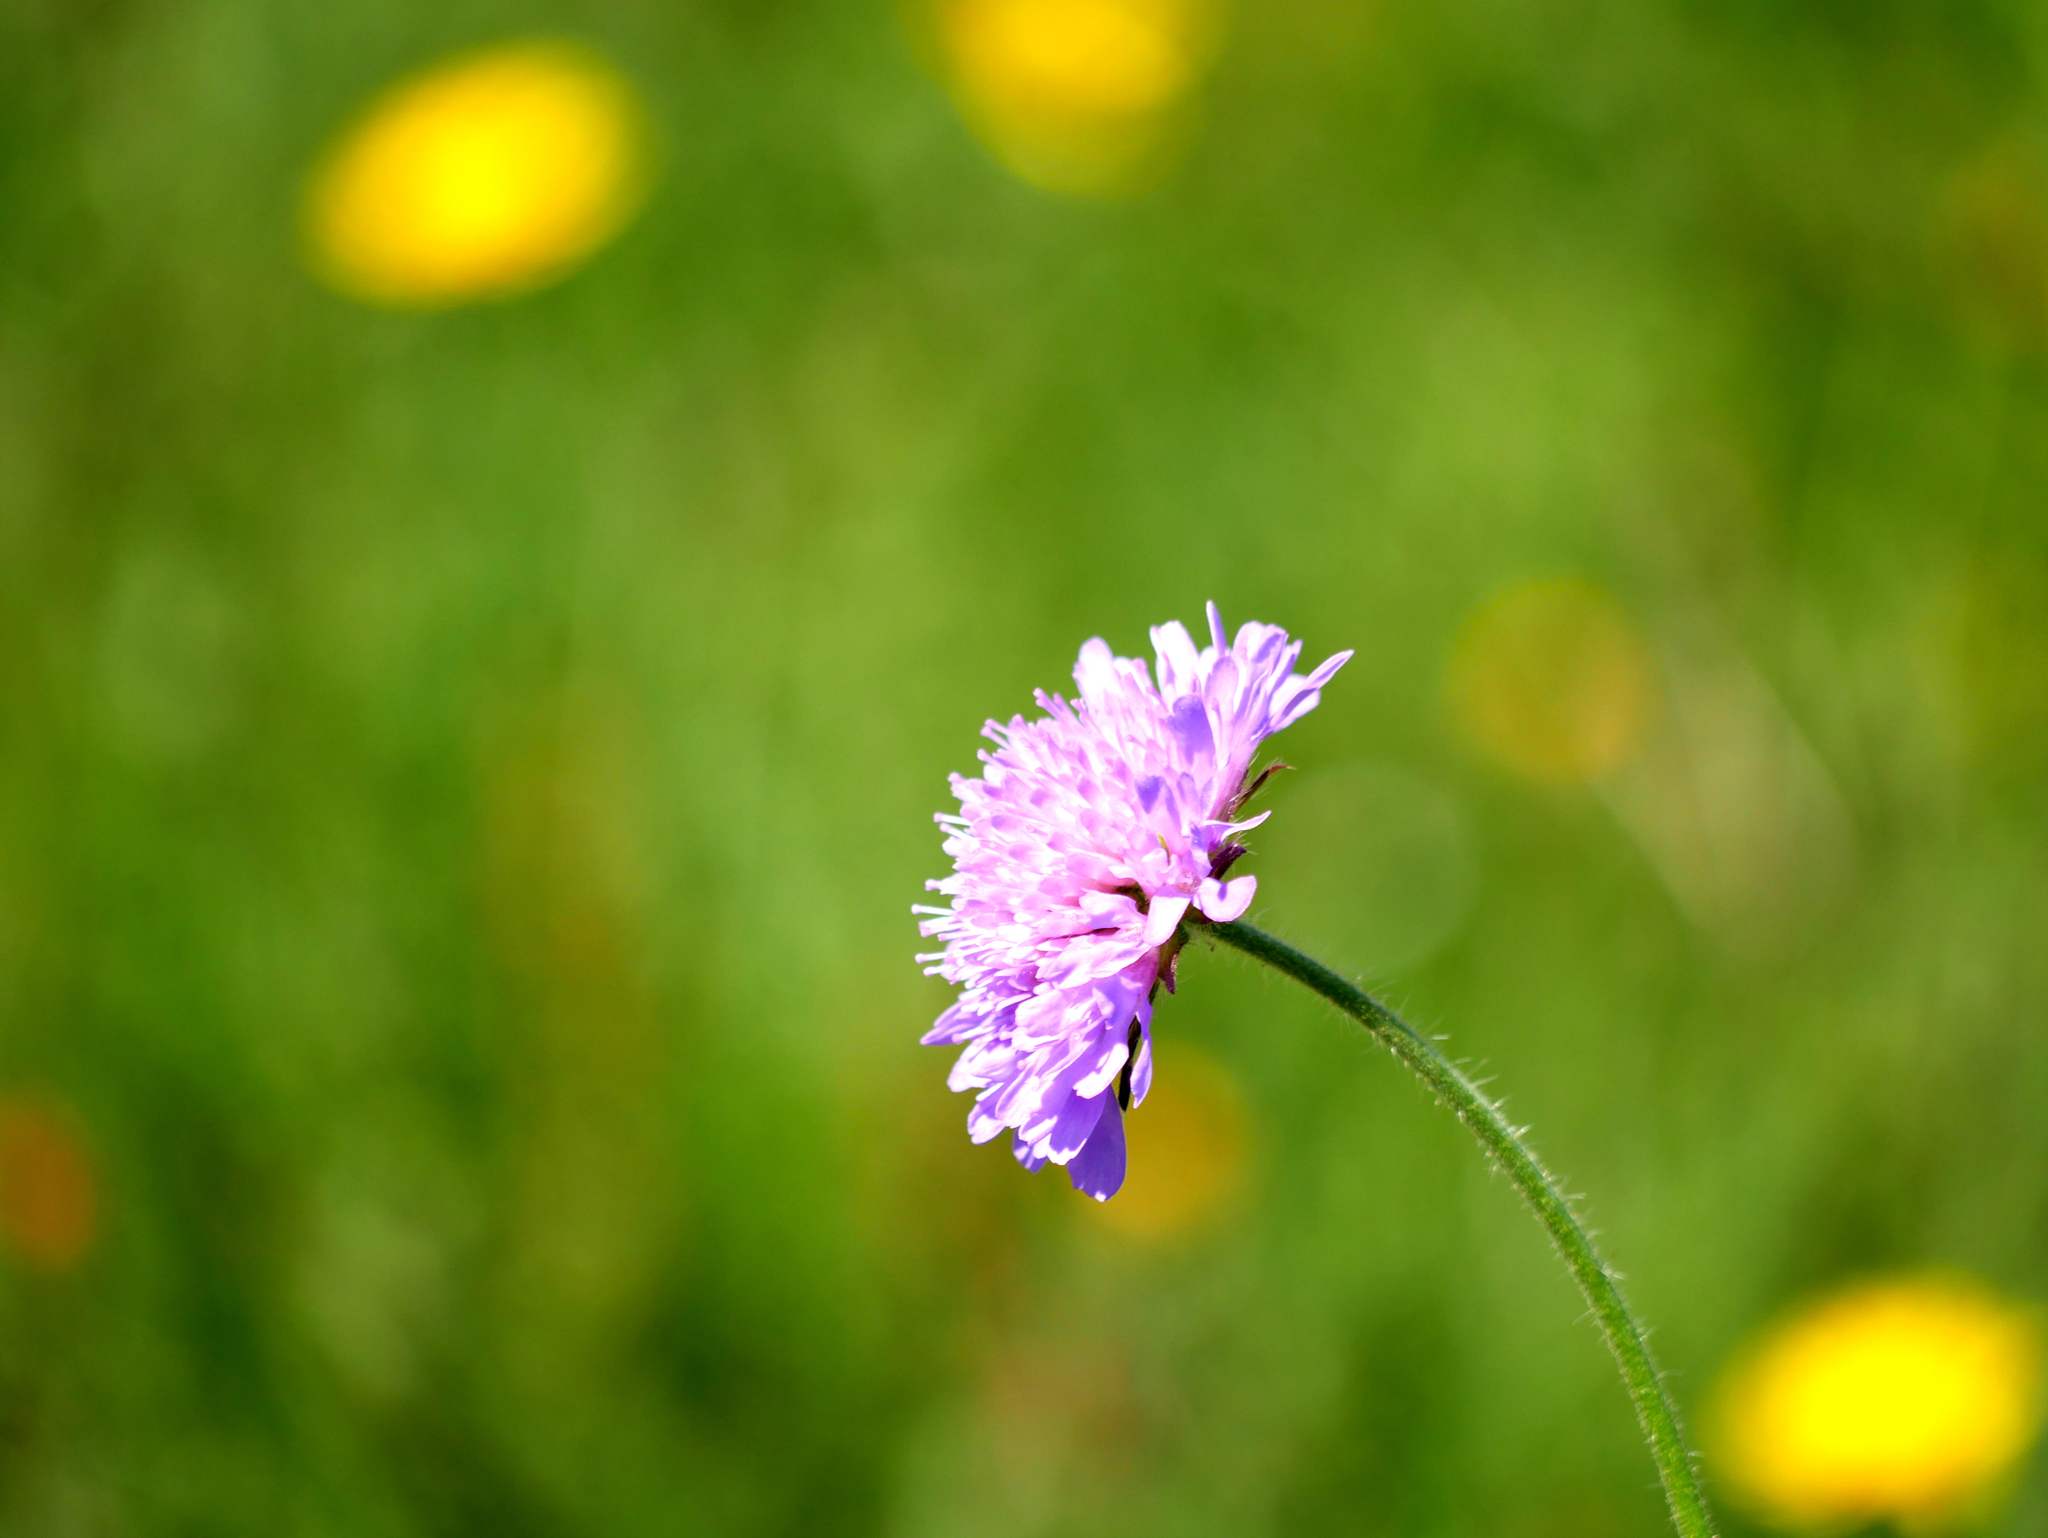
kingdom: Plantae
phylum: Tracheophyta
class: Magnoliopsida
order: Dipsacales
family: Caprifoliaceae
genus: Knautia
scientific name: Knautia arvensis
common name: Field scabiosa
